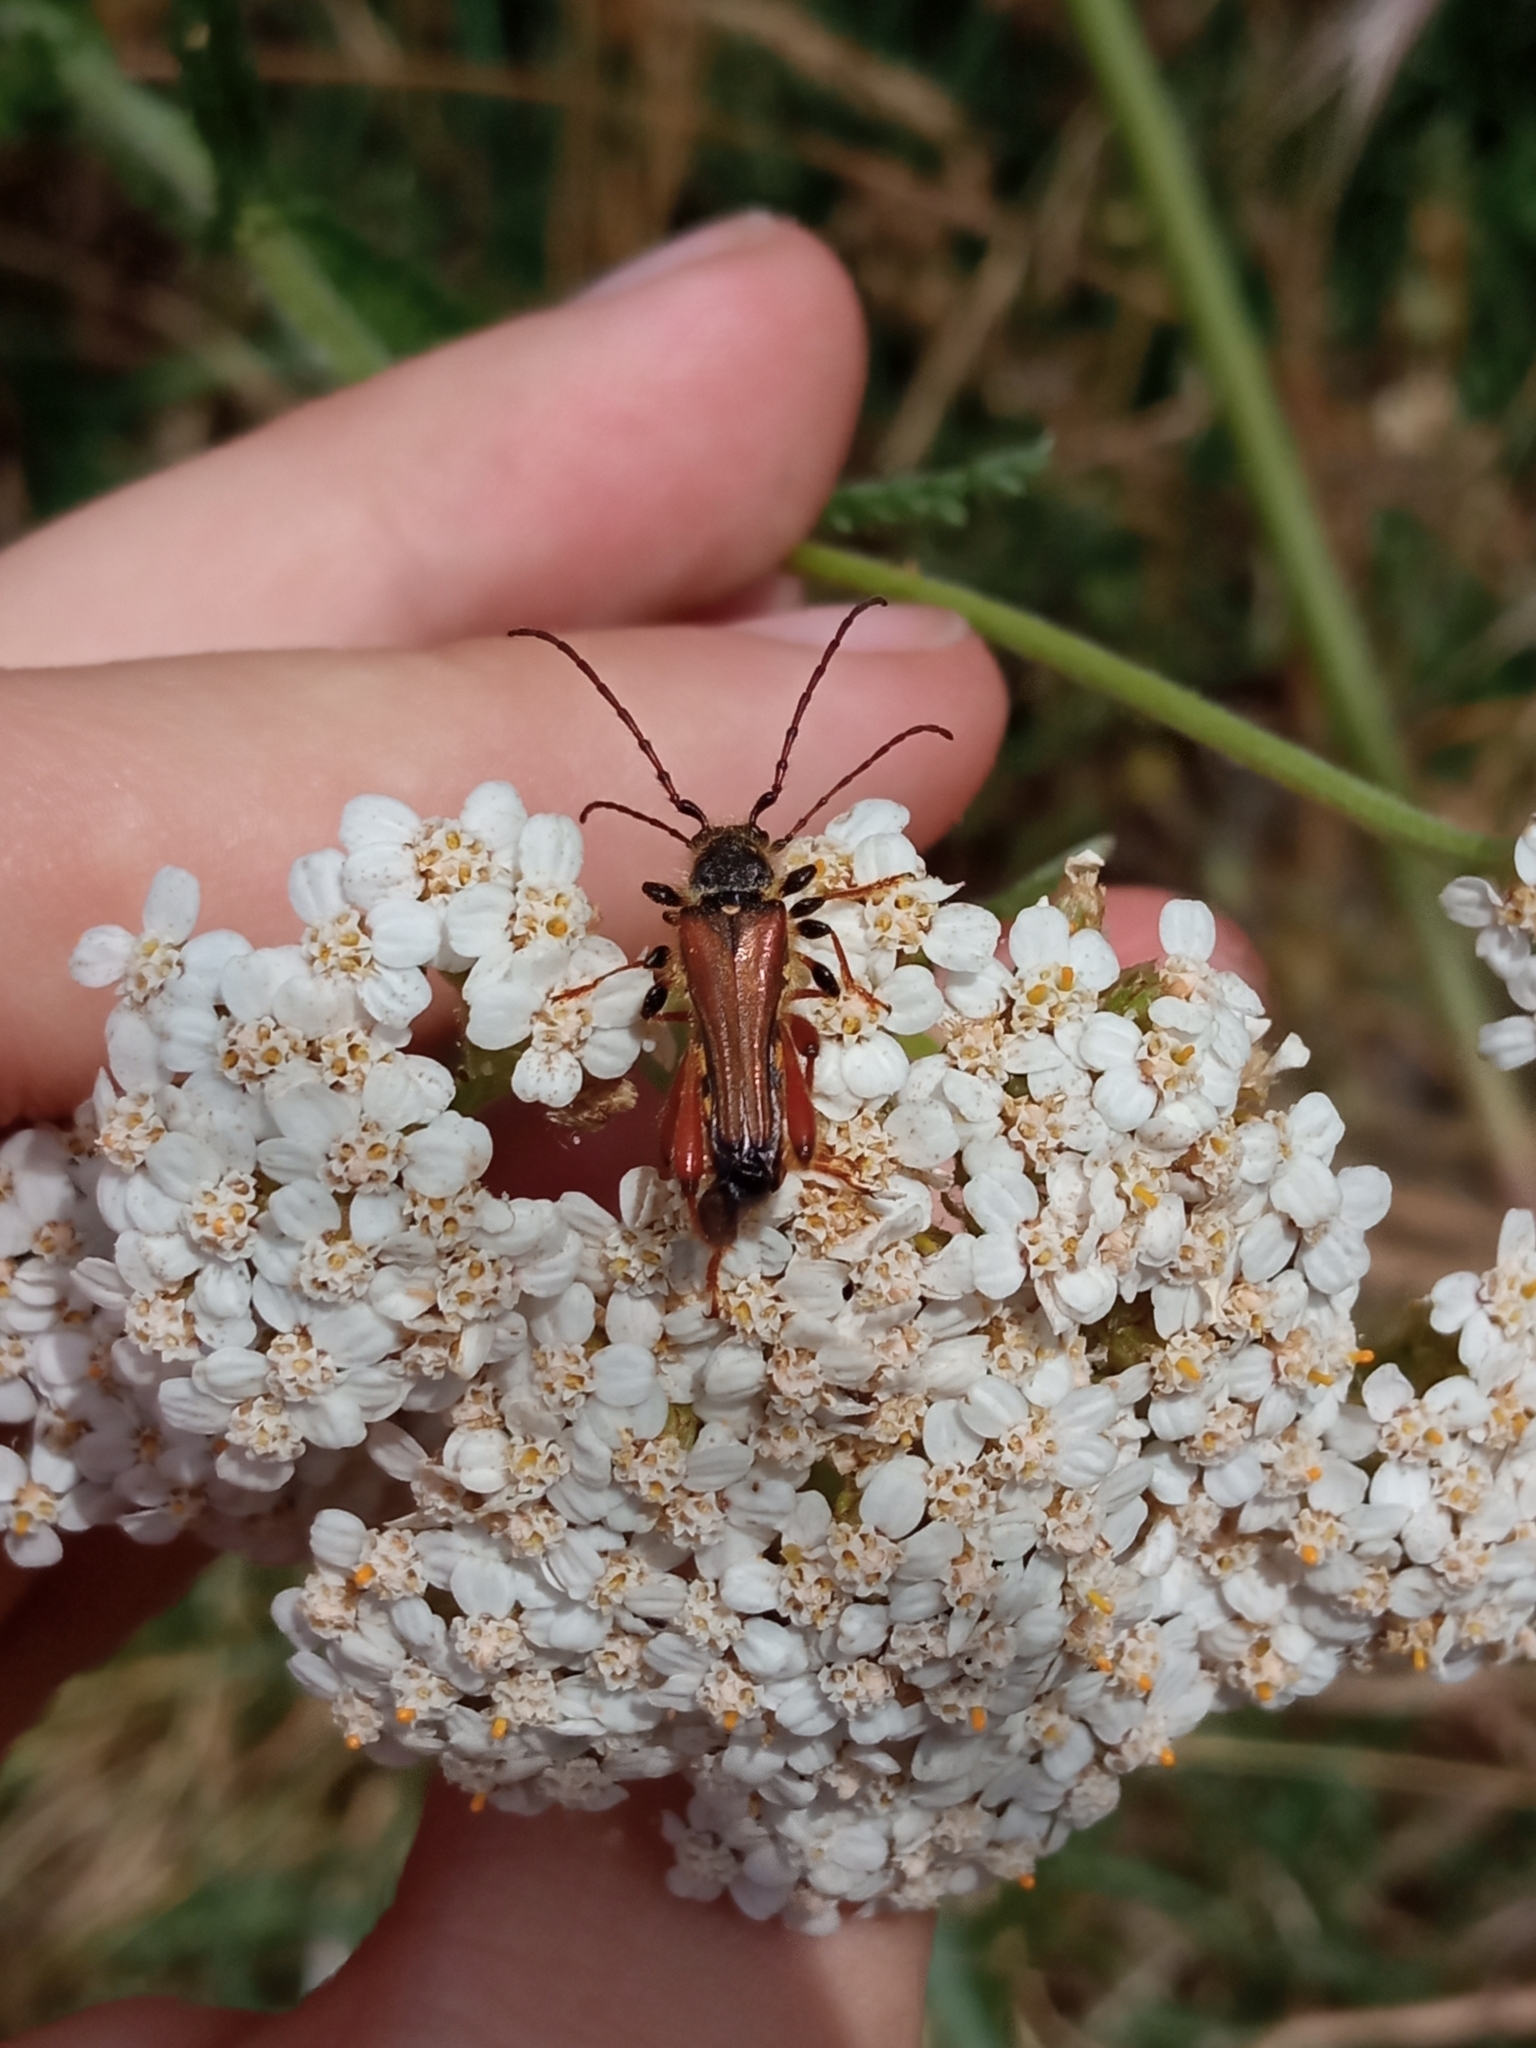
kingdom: Animalia
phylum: Arthropoda
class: Insecta
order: Coleoptera
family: Cerambycidae
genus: Stenopterus
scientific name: Stenopterus rufus
